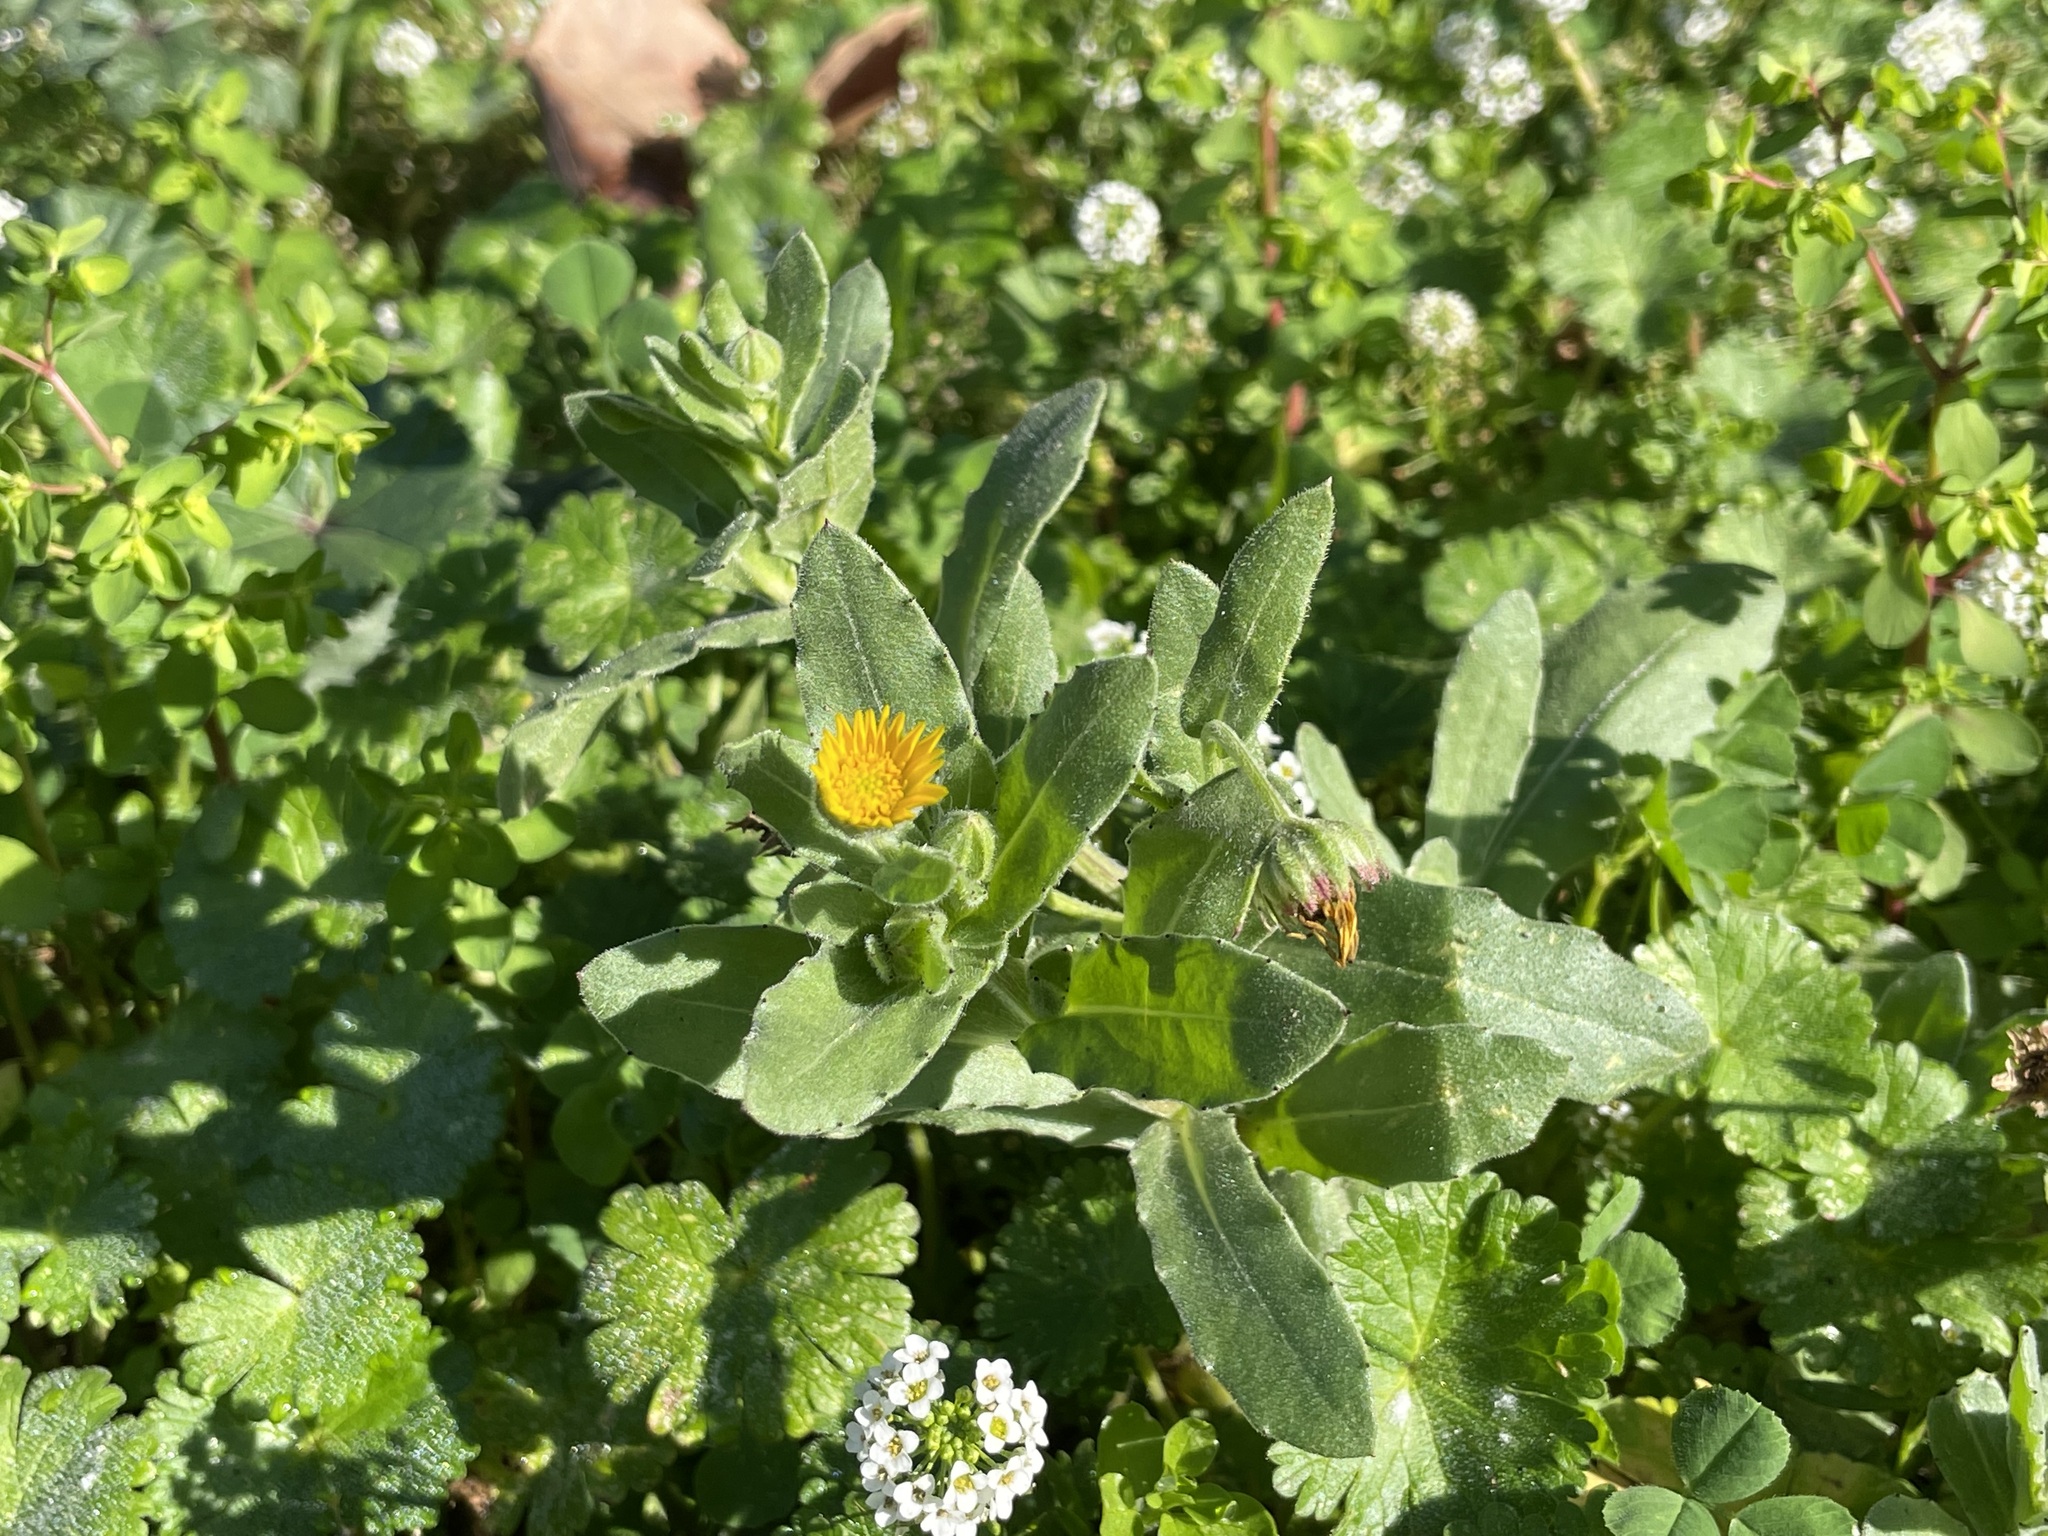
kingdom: Plantae
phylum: Tracheophyta
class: Magnoliopsida
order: Asterales
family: Asteraceae
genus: Calendula
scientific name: Calendula arvensis
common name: Field marigold
